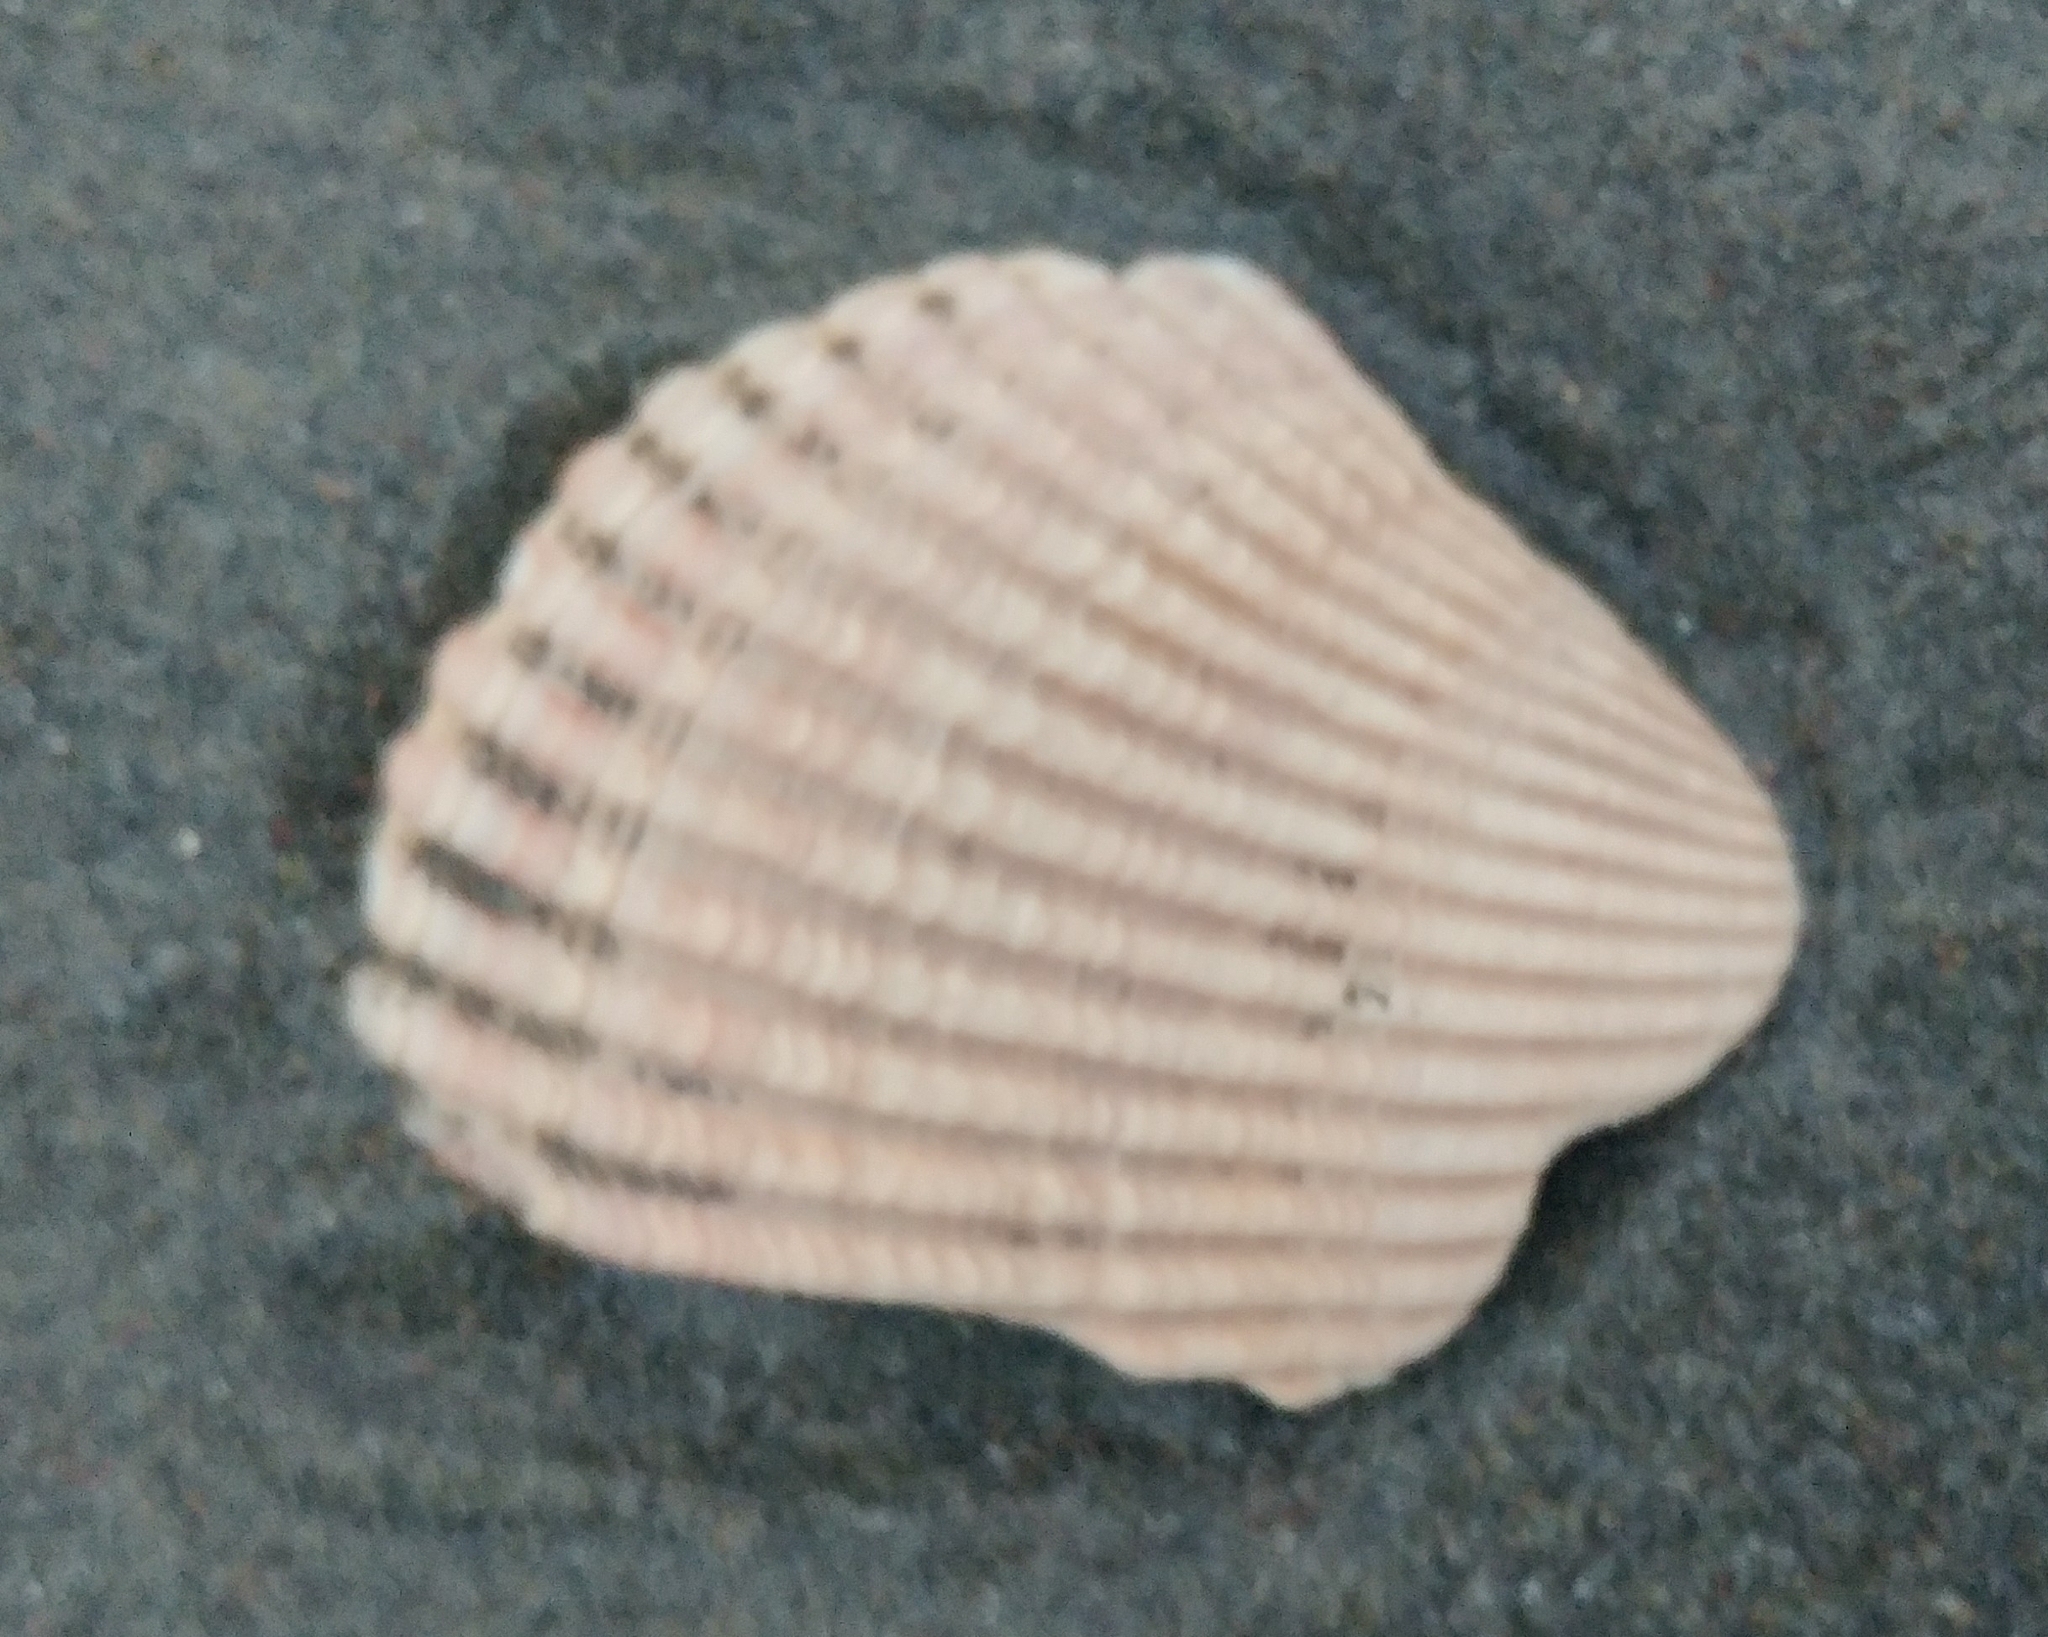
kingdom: Animalia
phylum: Mollusca
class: Bivalvia
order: Cardiida
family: Cardiidae
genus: Clinocardium
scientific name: Clinocardium nuttallii
